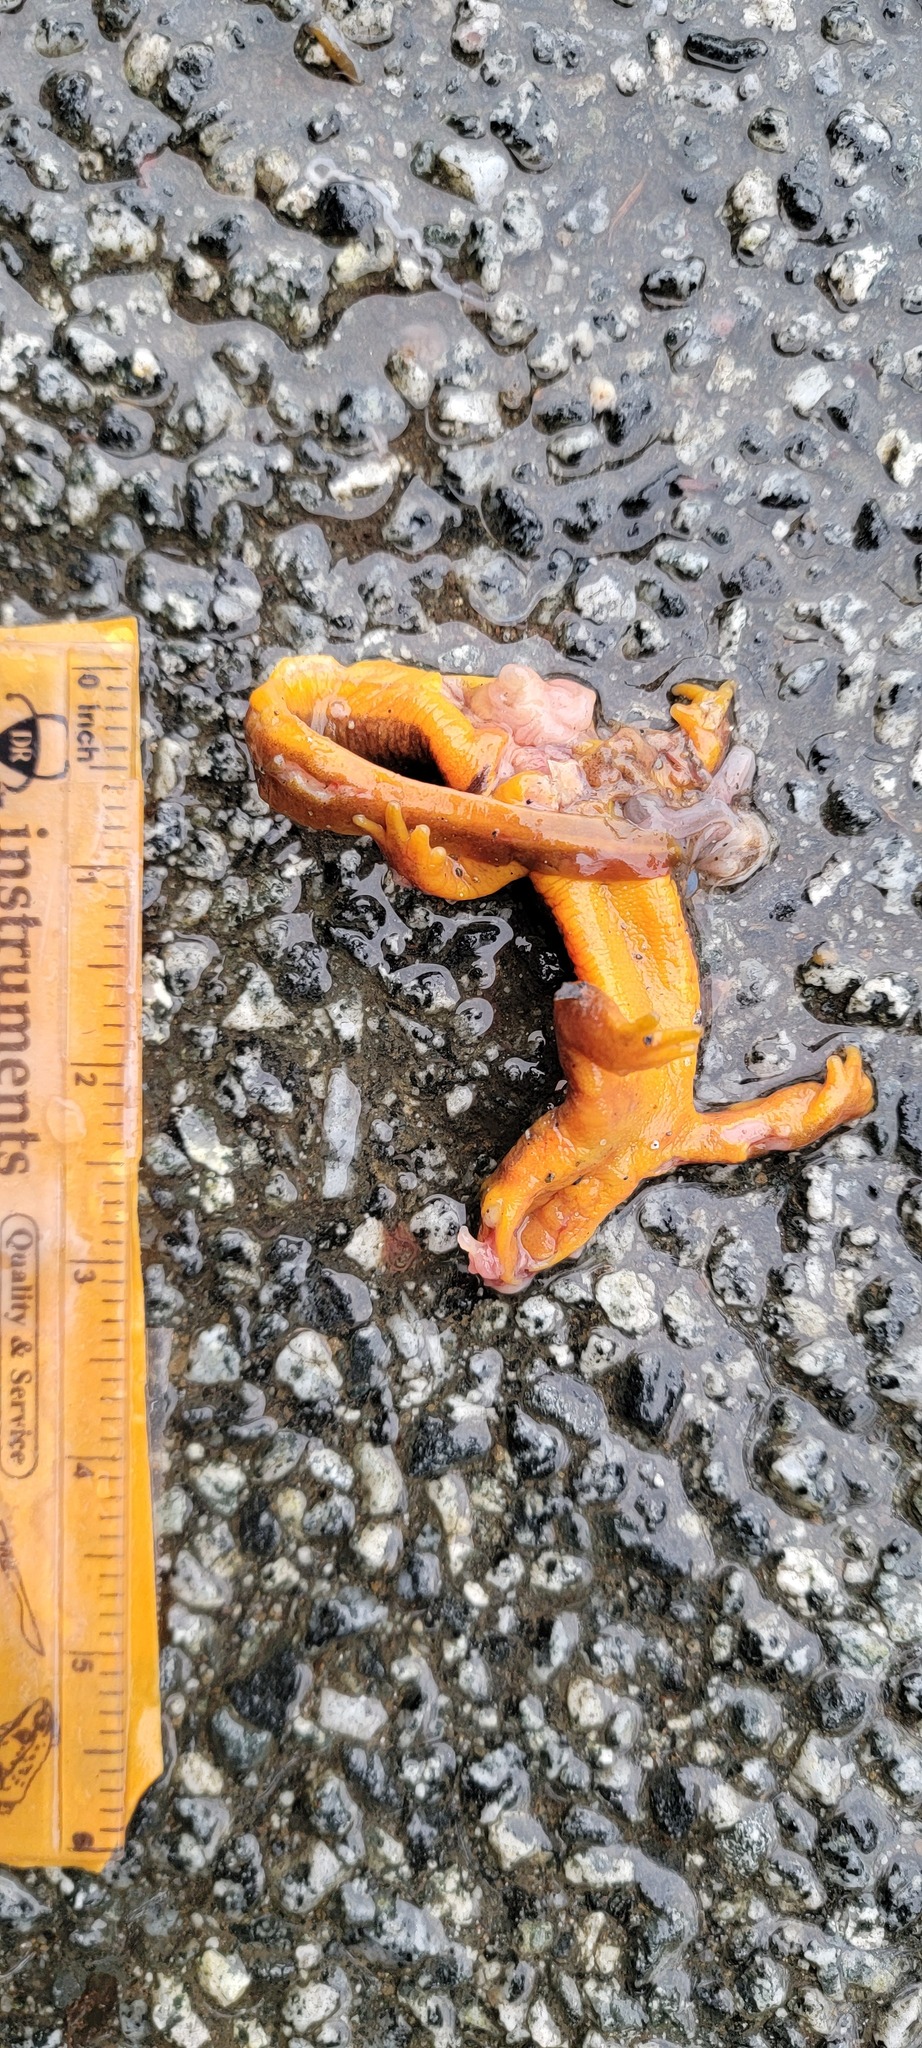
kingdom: Animalia
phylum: Chordata
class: Amphibia
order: Caudata
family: Salamandridae
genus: Taricha
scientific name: Taricha
